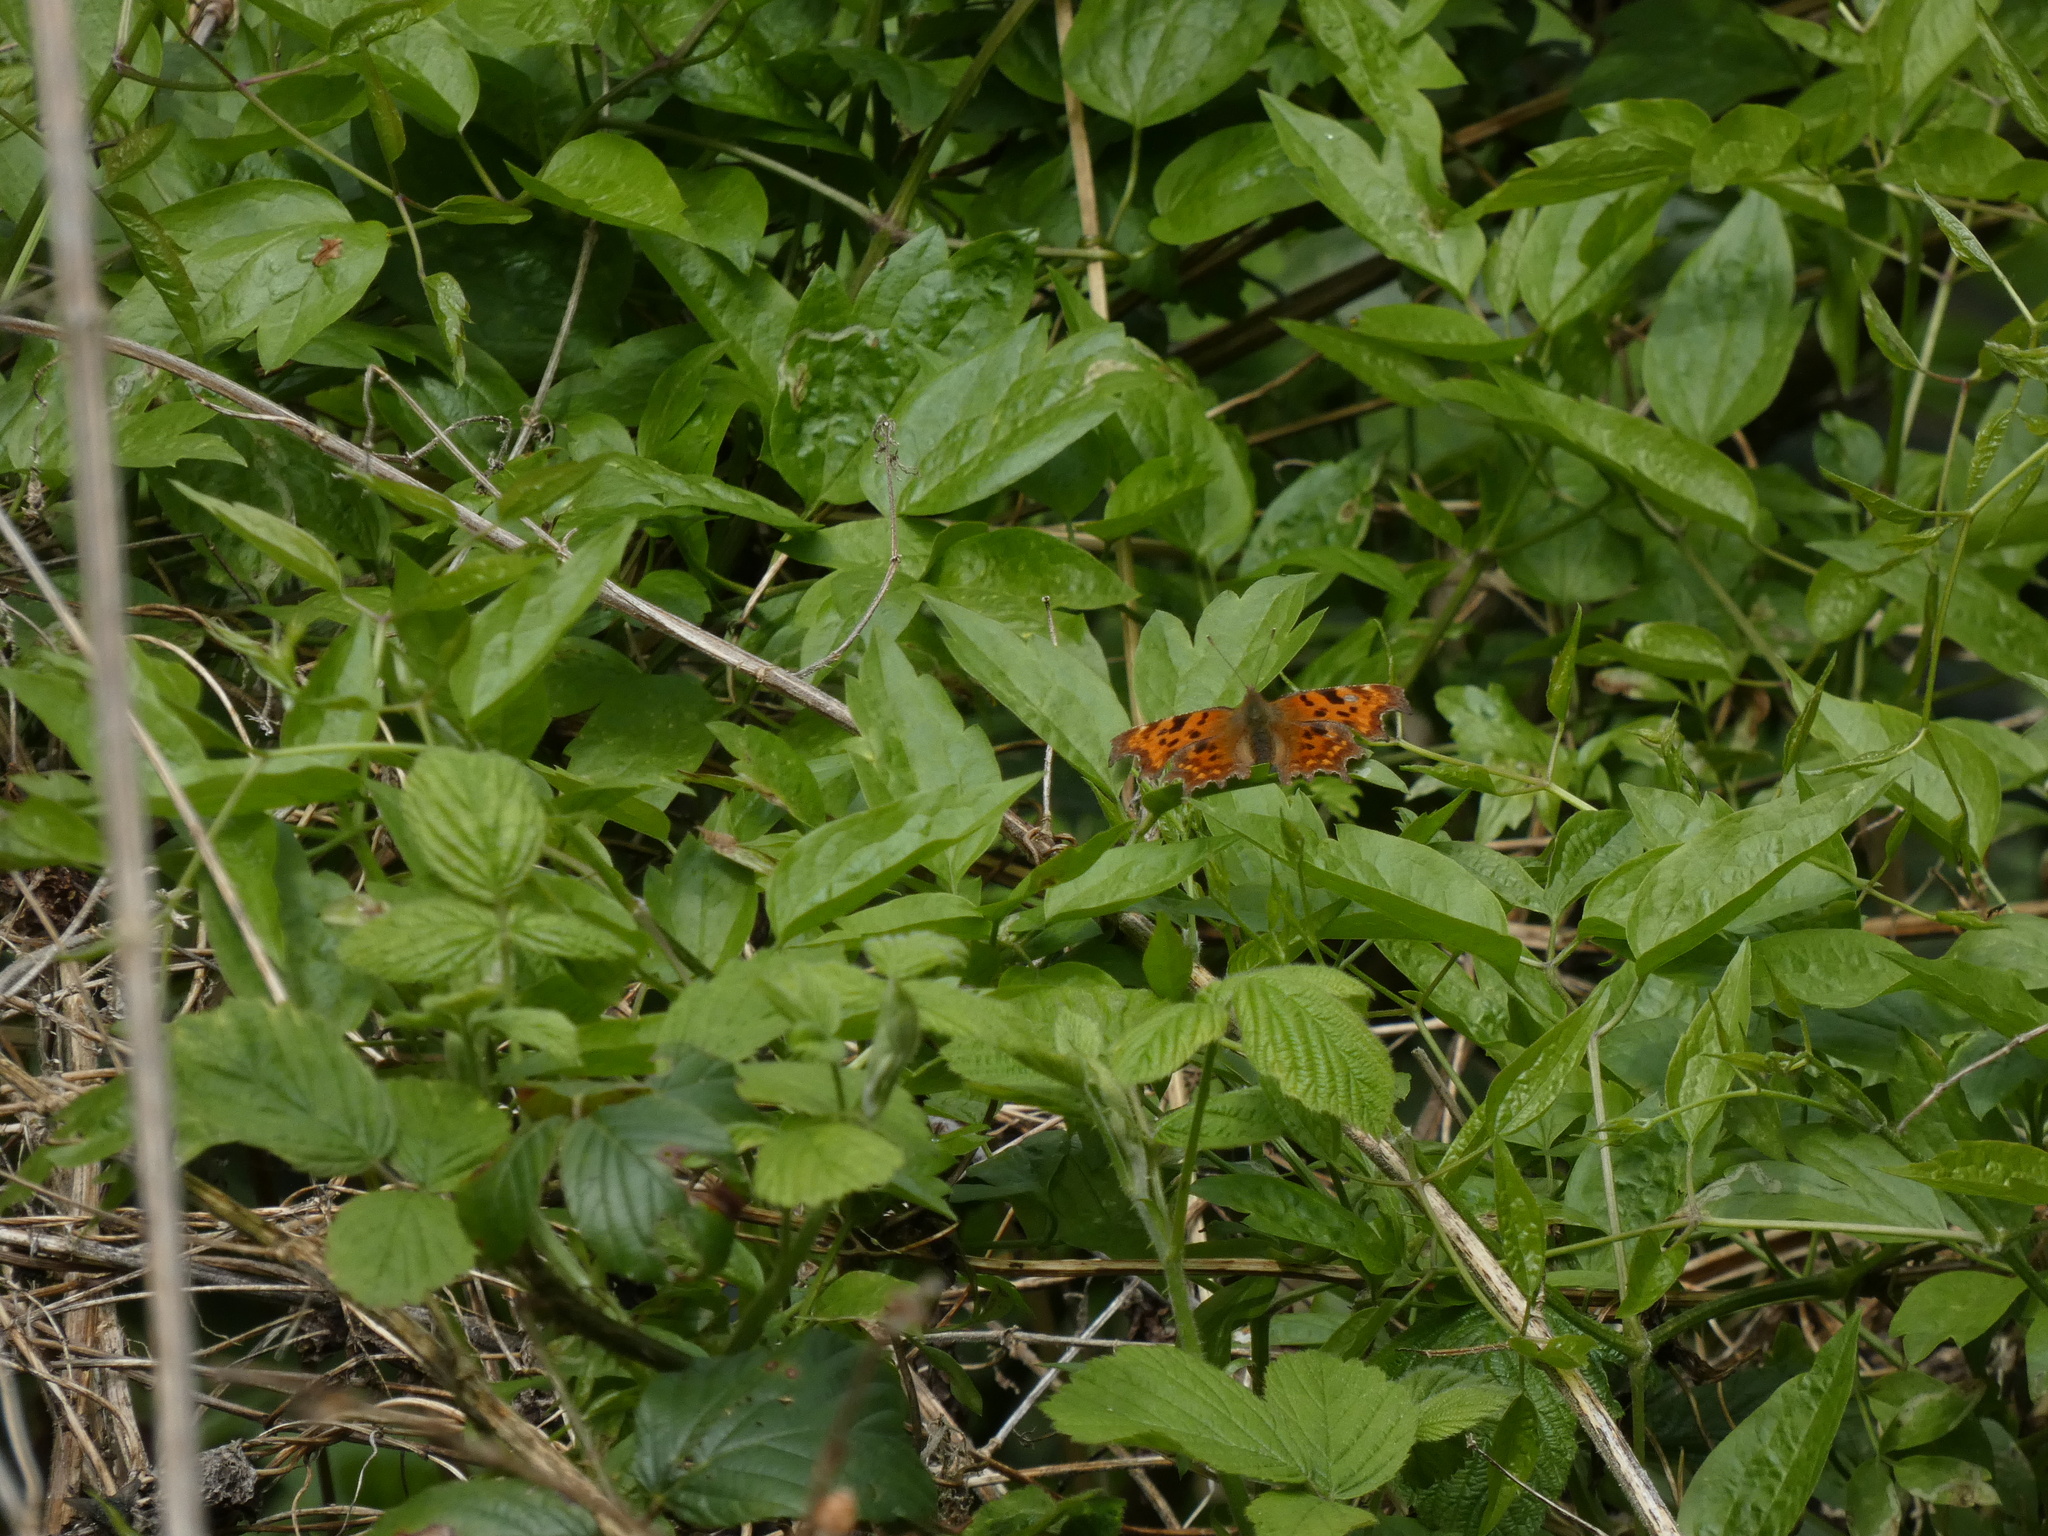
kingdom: Animalia
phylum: Arthropoda
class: Insecta
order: Lepidoptera
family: Nymphalidae
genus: Polygonia
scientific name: Polygonia c-album
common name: Comma
